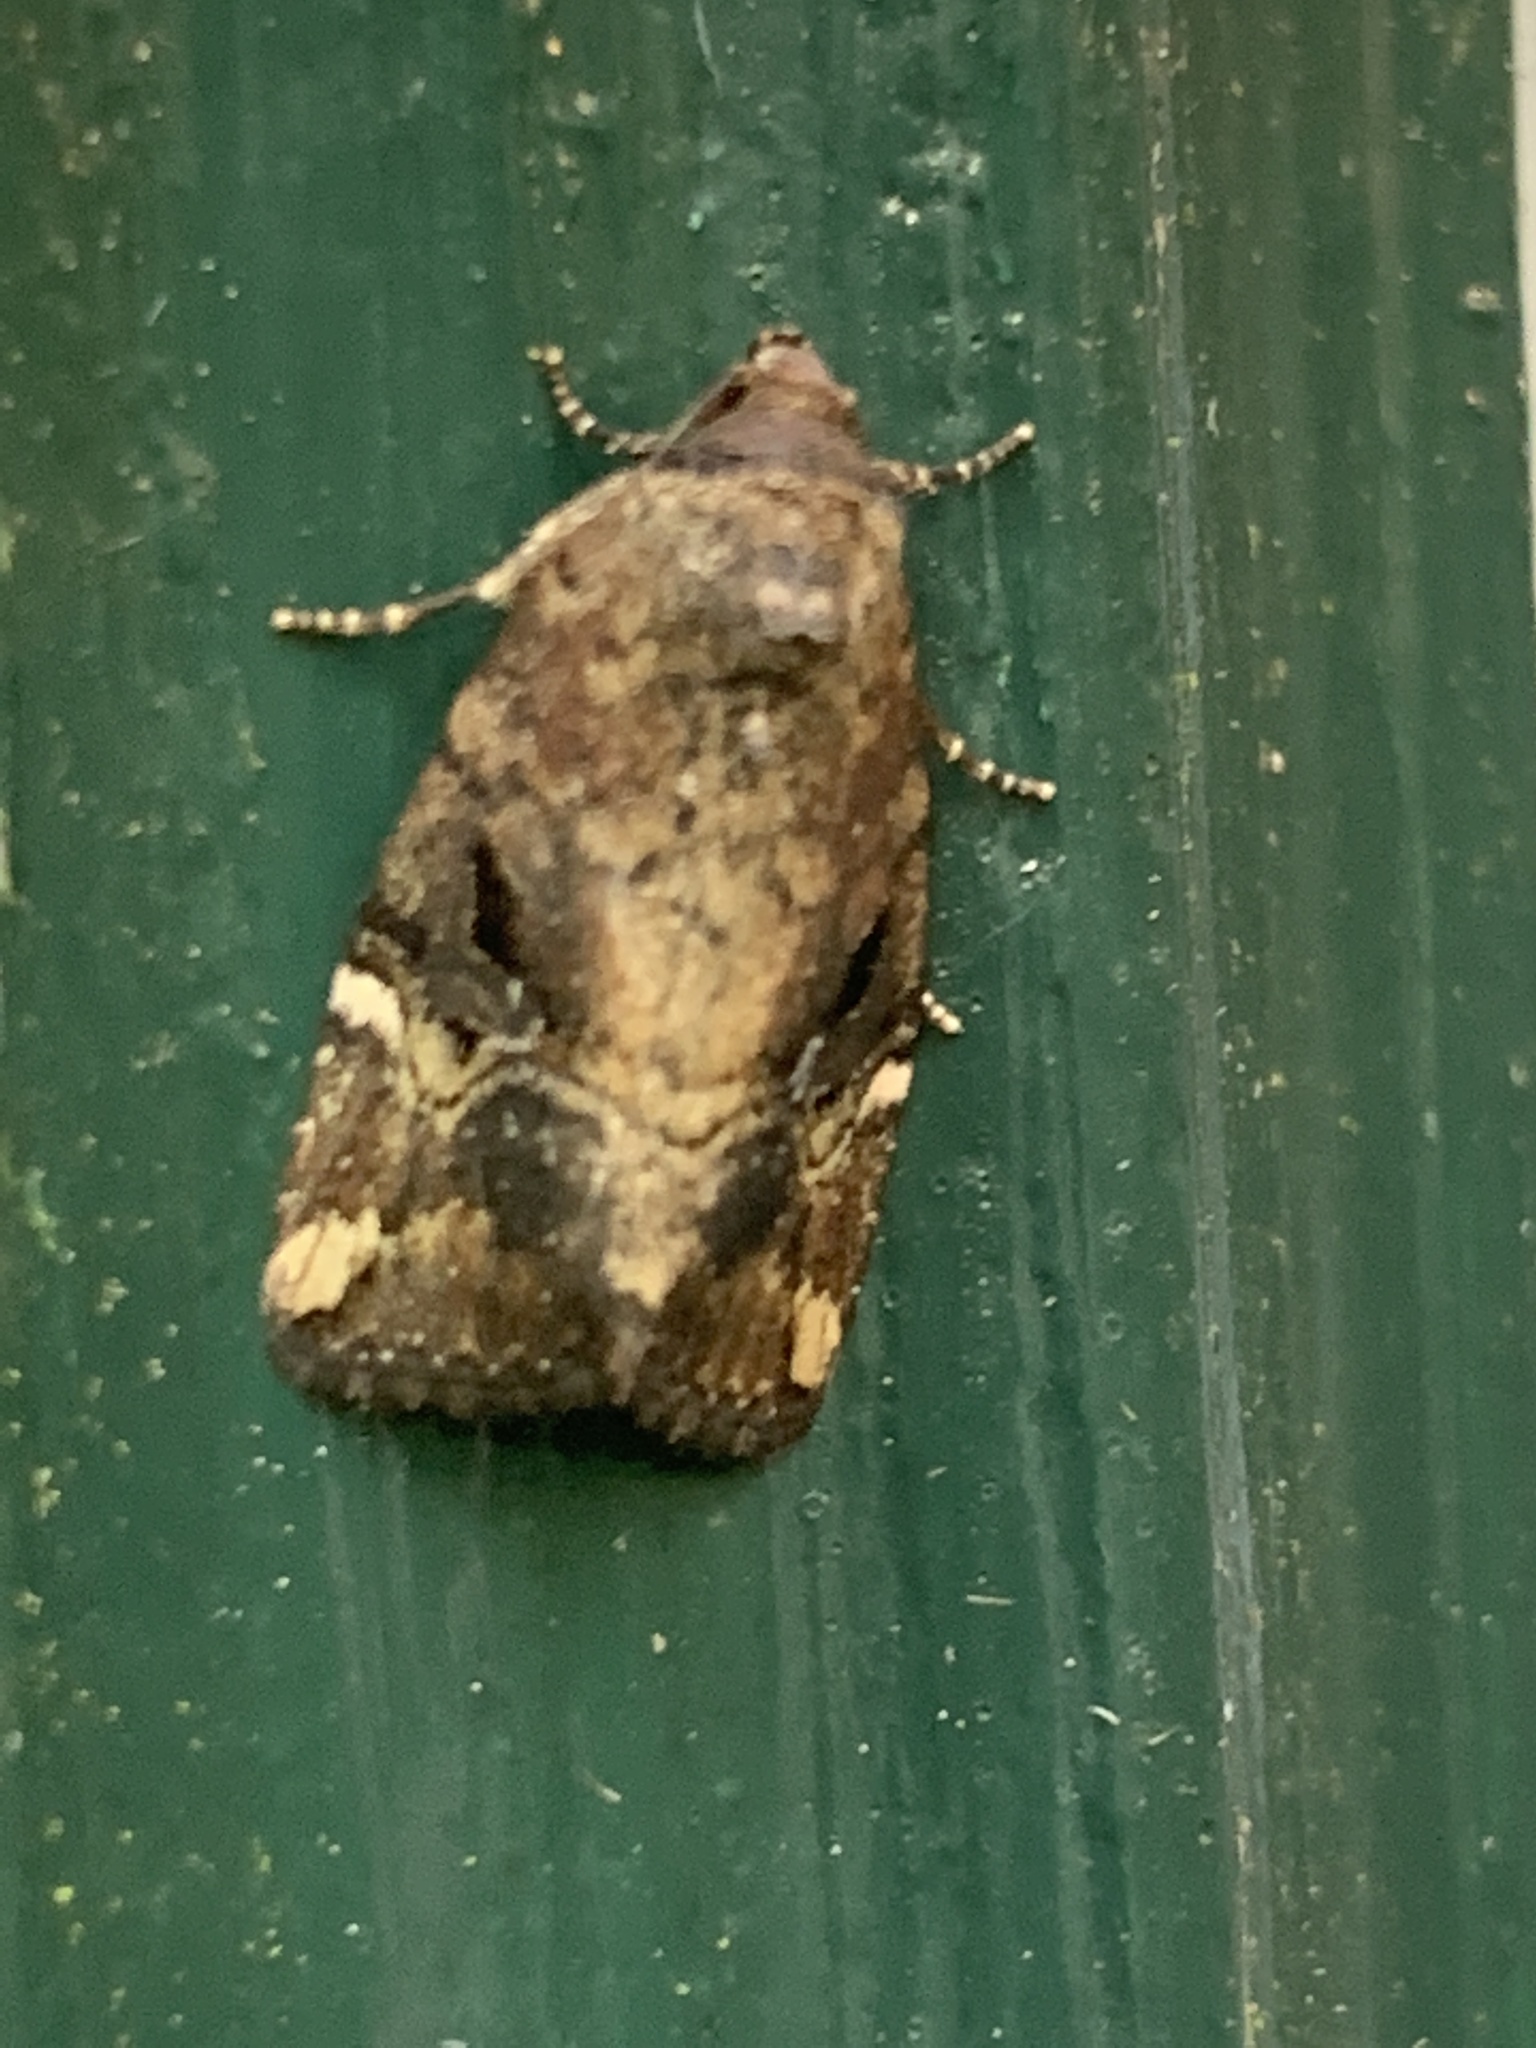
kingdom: Animalia
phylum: Arthropoda
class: Insecta
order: Lepidoptera
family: Noctuidae
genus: Elaphria
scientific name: Elaphria versicolor
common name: Fir harlequin
